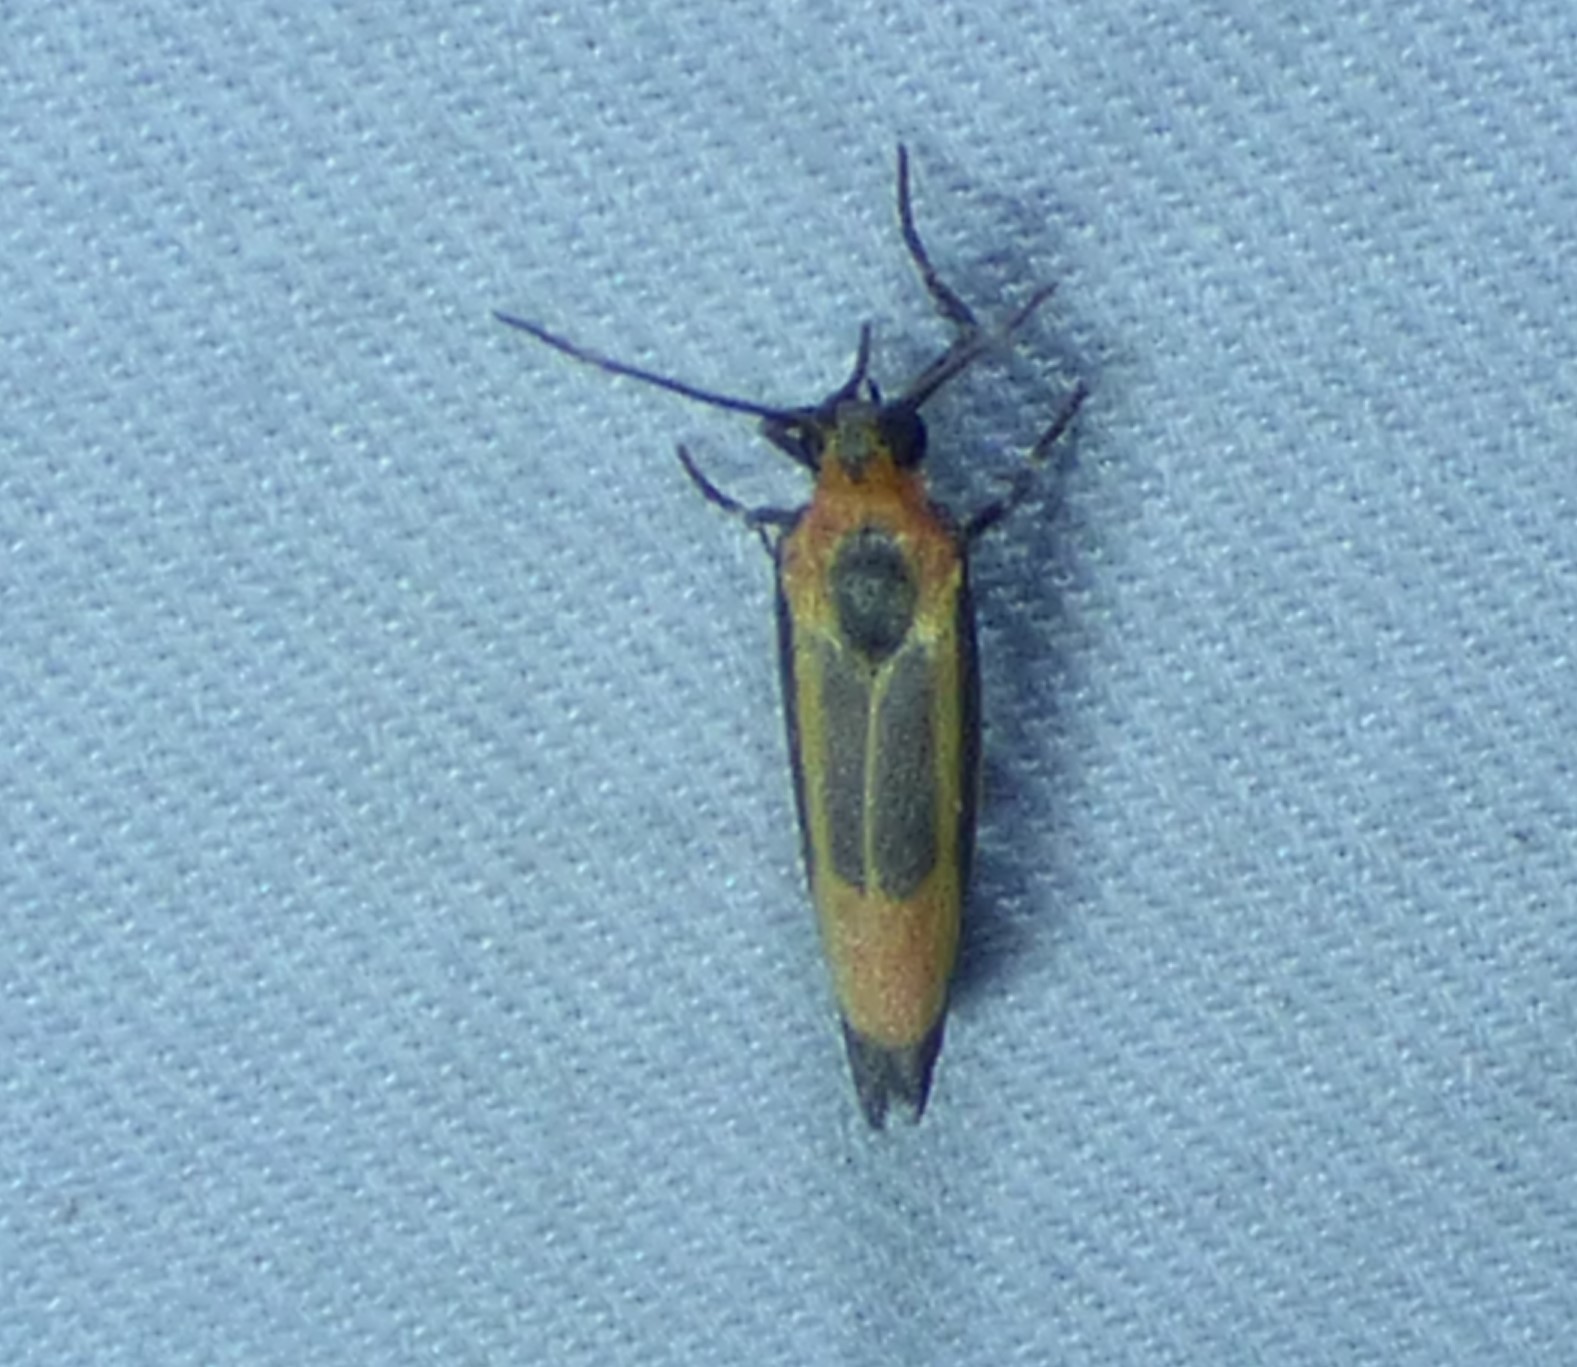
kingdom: Animalia
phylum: Arthropoda
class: Insecta
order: Lepidoptera
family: Erebidae
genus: Cisthene
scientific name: Cisthene packardii
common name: Packard's lichen moth
